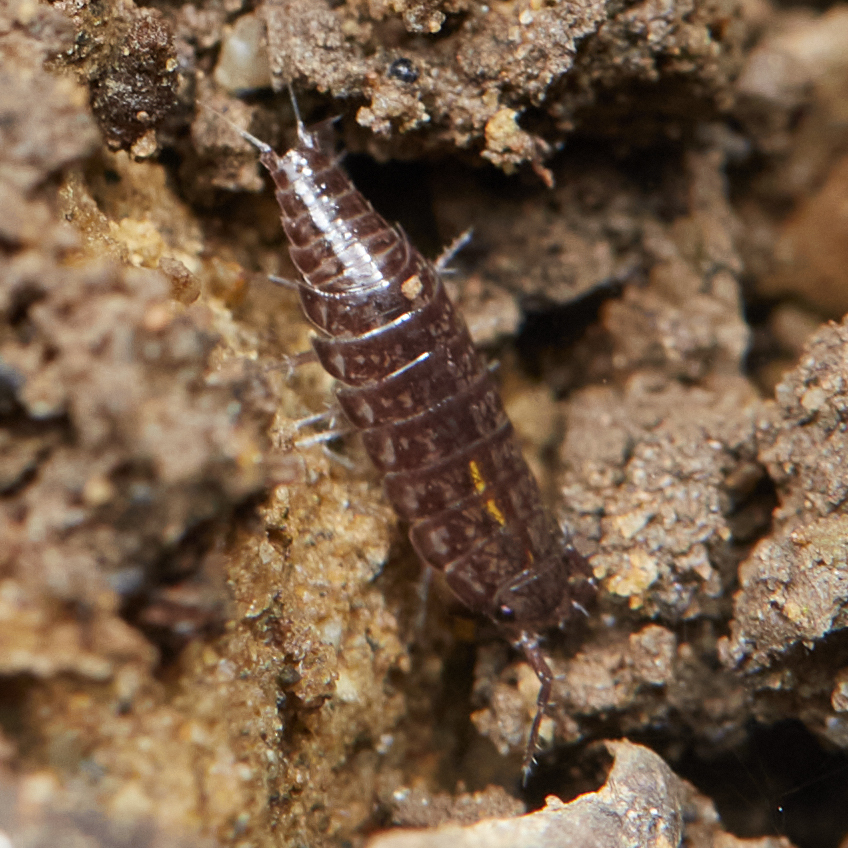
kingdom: Animalia
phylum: Arthropoda
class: Malacostraca
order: Isopoda
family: Ligiidae
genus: Ligidium
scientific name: Ligidium gracile
